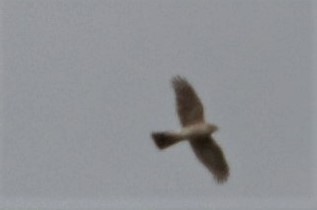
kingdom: Animalia
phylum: Chordata
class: Aves
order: Accipitriformes
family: Accipitridae
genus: Accipiter
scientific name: Accipiter nisus
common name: Eurasian sparrowhawk
